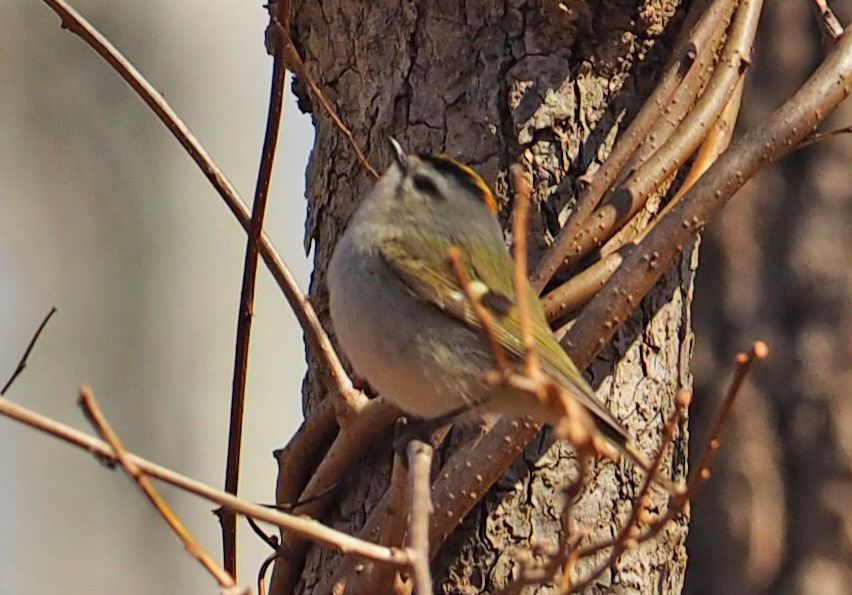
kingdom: Animalia
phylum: Chordata
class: Aves
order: Passeriformes
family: Regulidae
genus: Regulus
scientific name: Regulus satrapa
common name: Golden-crowned kinglet
